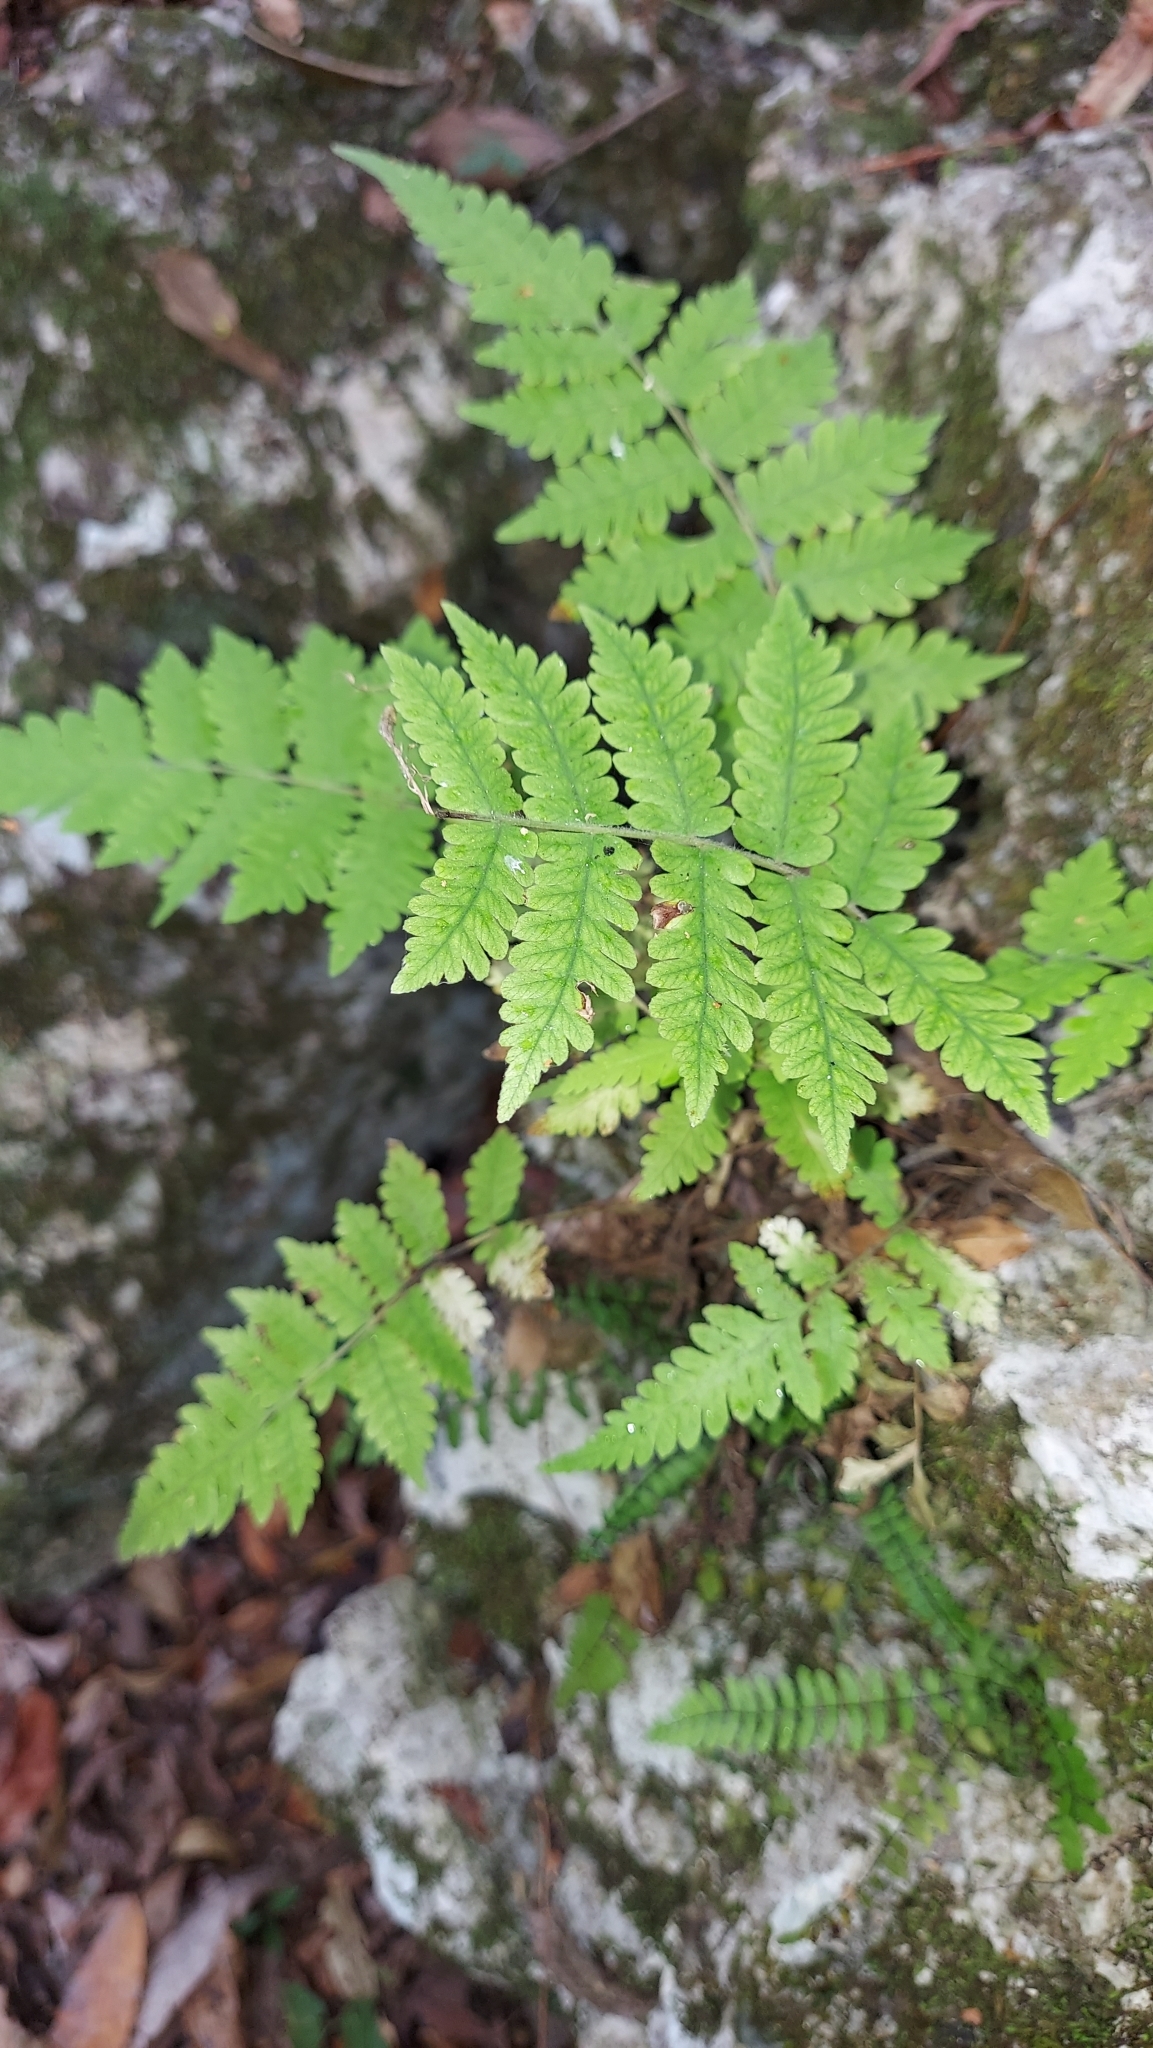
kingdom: Plantae
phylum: Tracheophyta
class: Polypodiopsida
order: Polypodiales
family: Thelypteridaceae
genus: Christella
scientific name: Christella dentata
